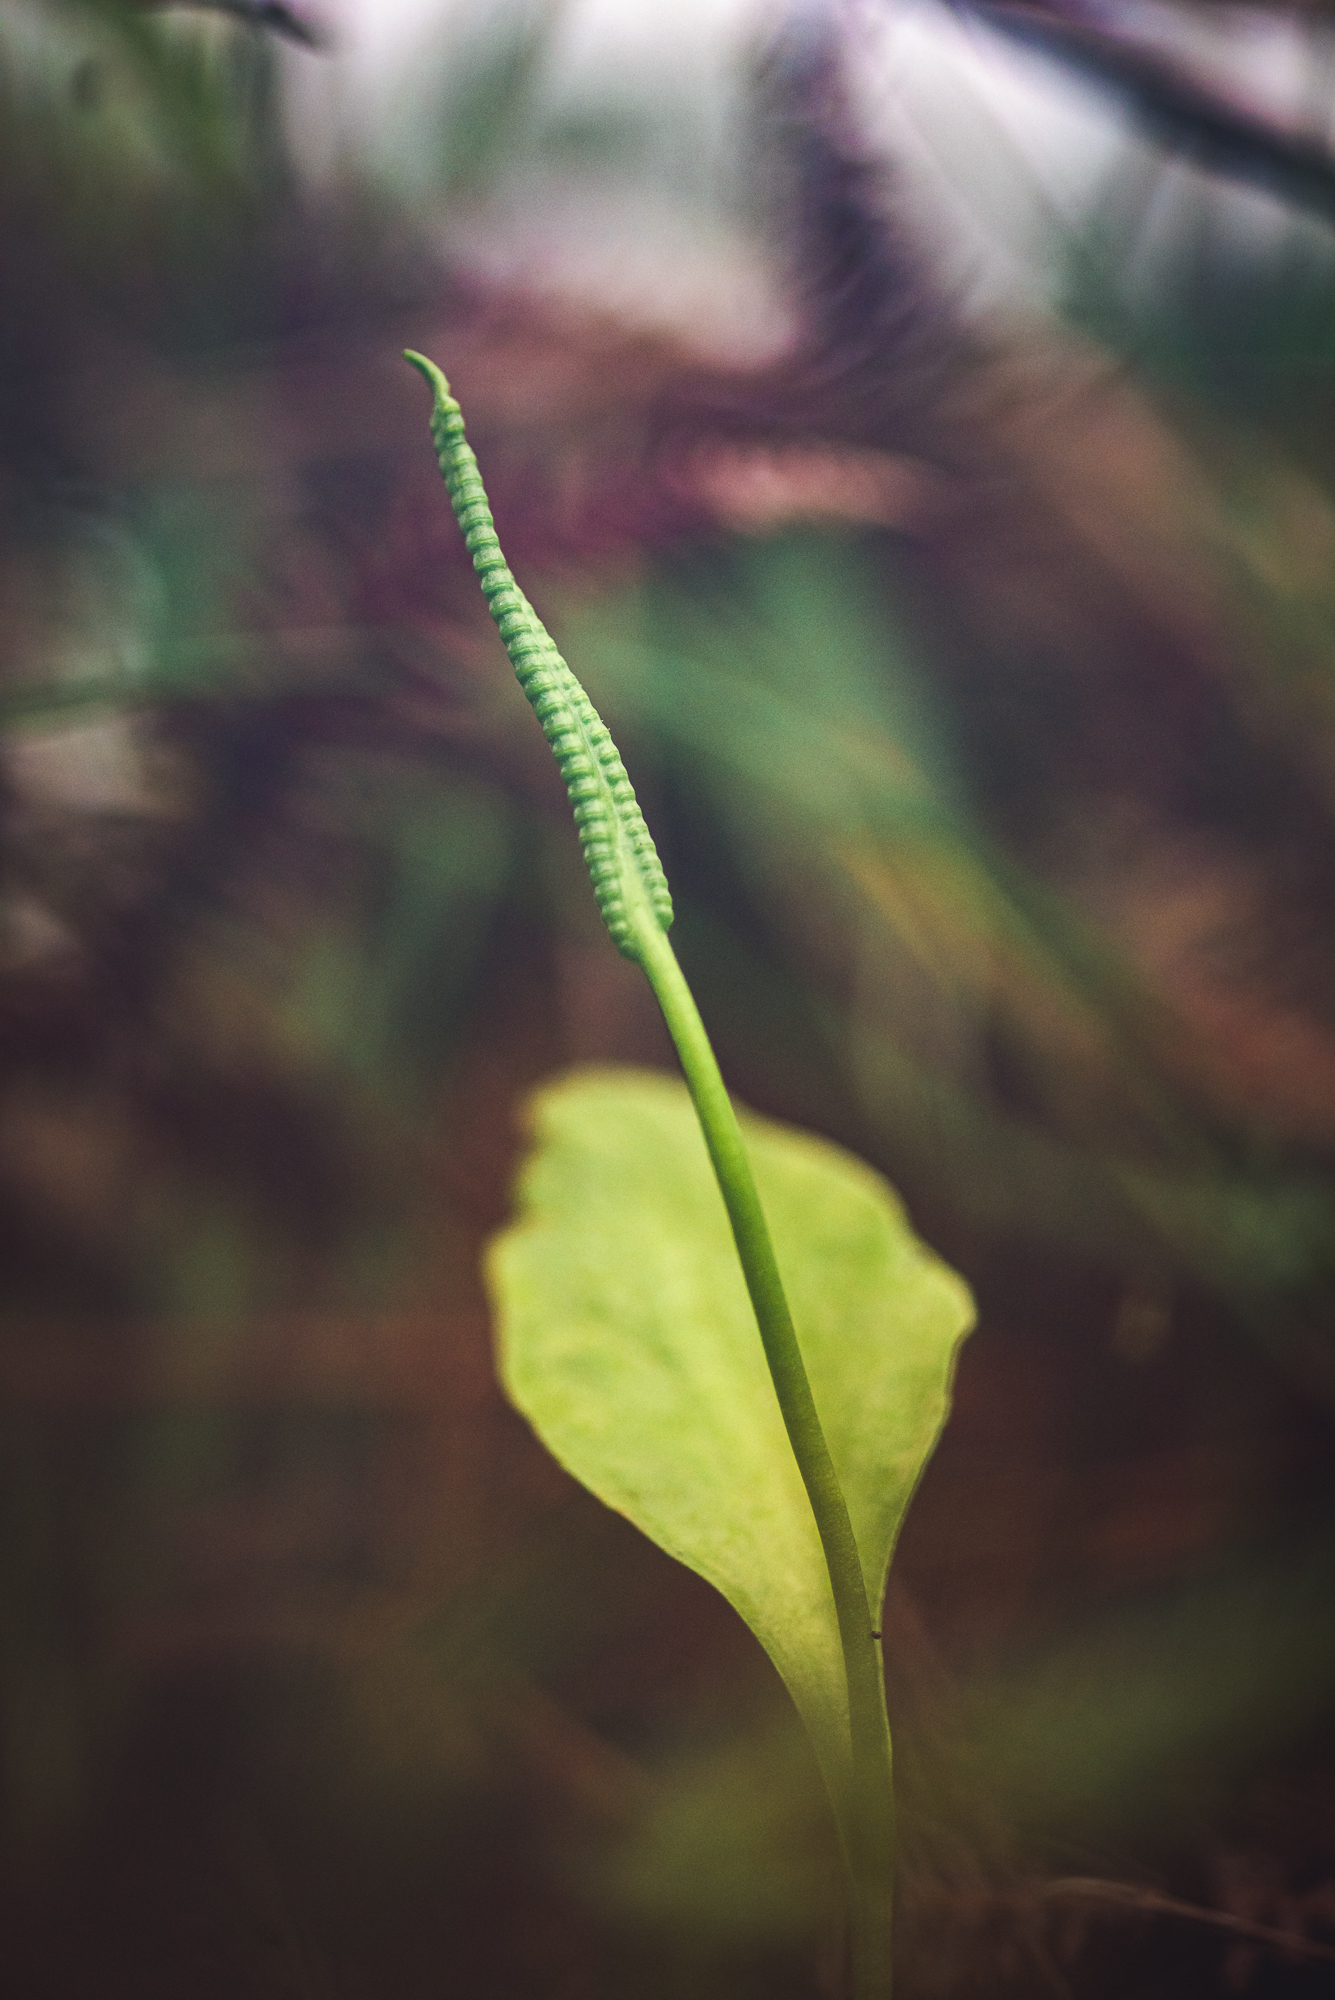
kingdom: Plantae
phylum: Tracheophyta
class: Polypodiopsida
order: Ophioglossales
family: Ophioglossaceae
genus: Ophioglossum
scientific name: Ophioglossum vulgatum
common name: Adder's-tongue
